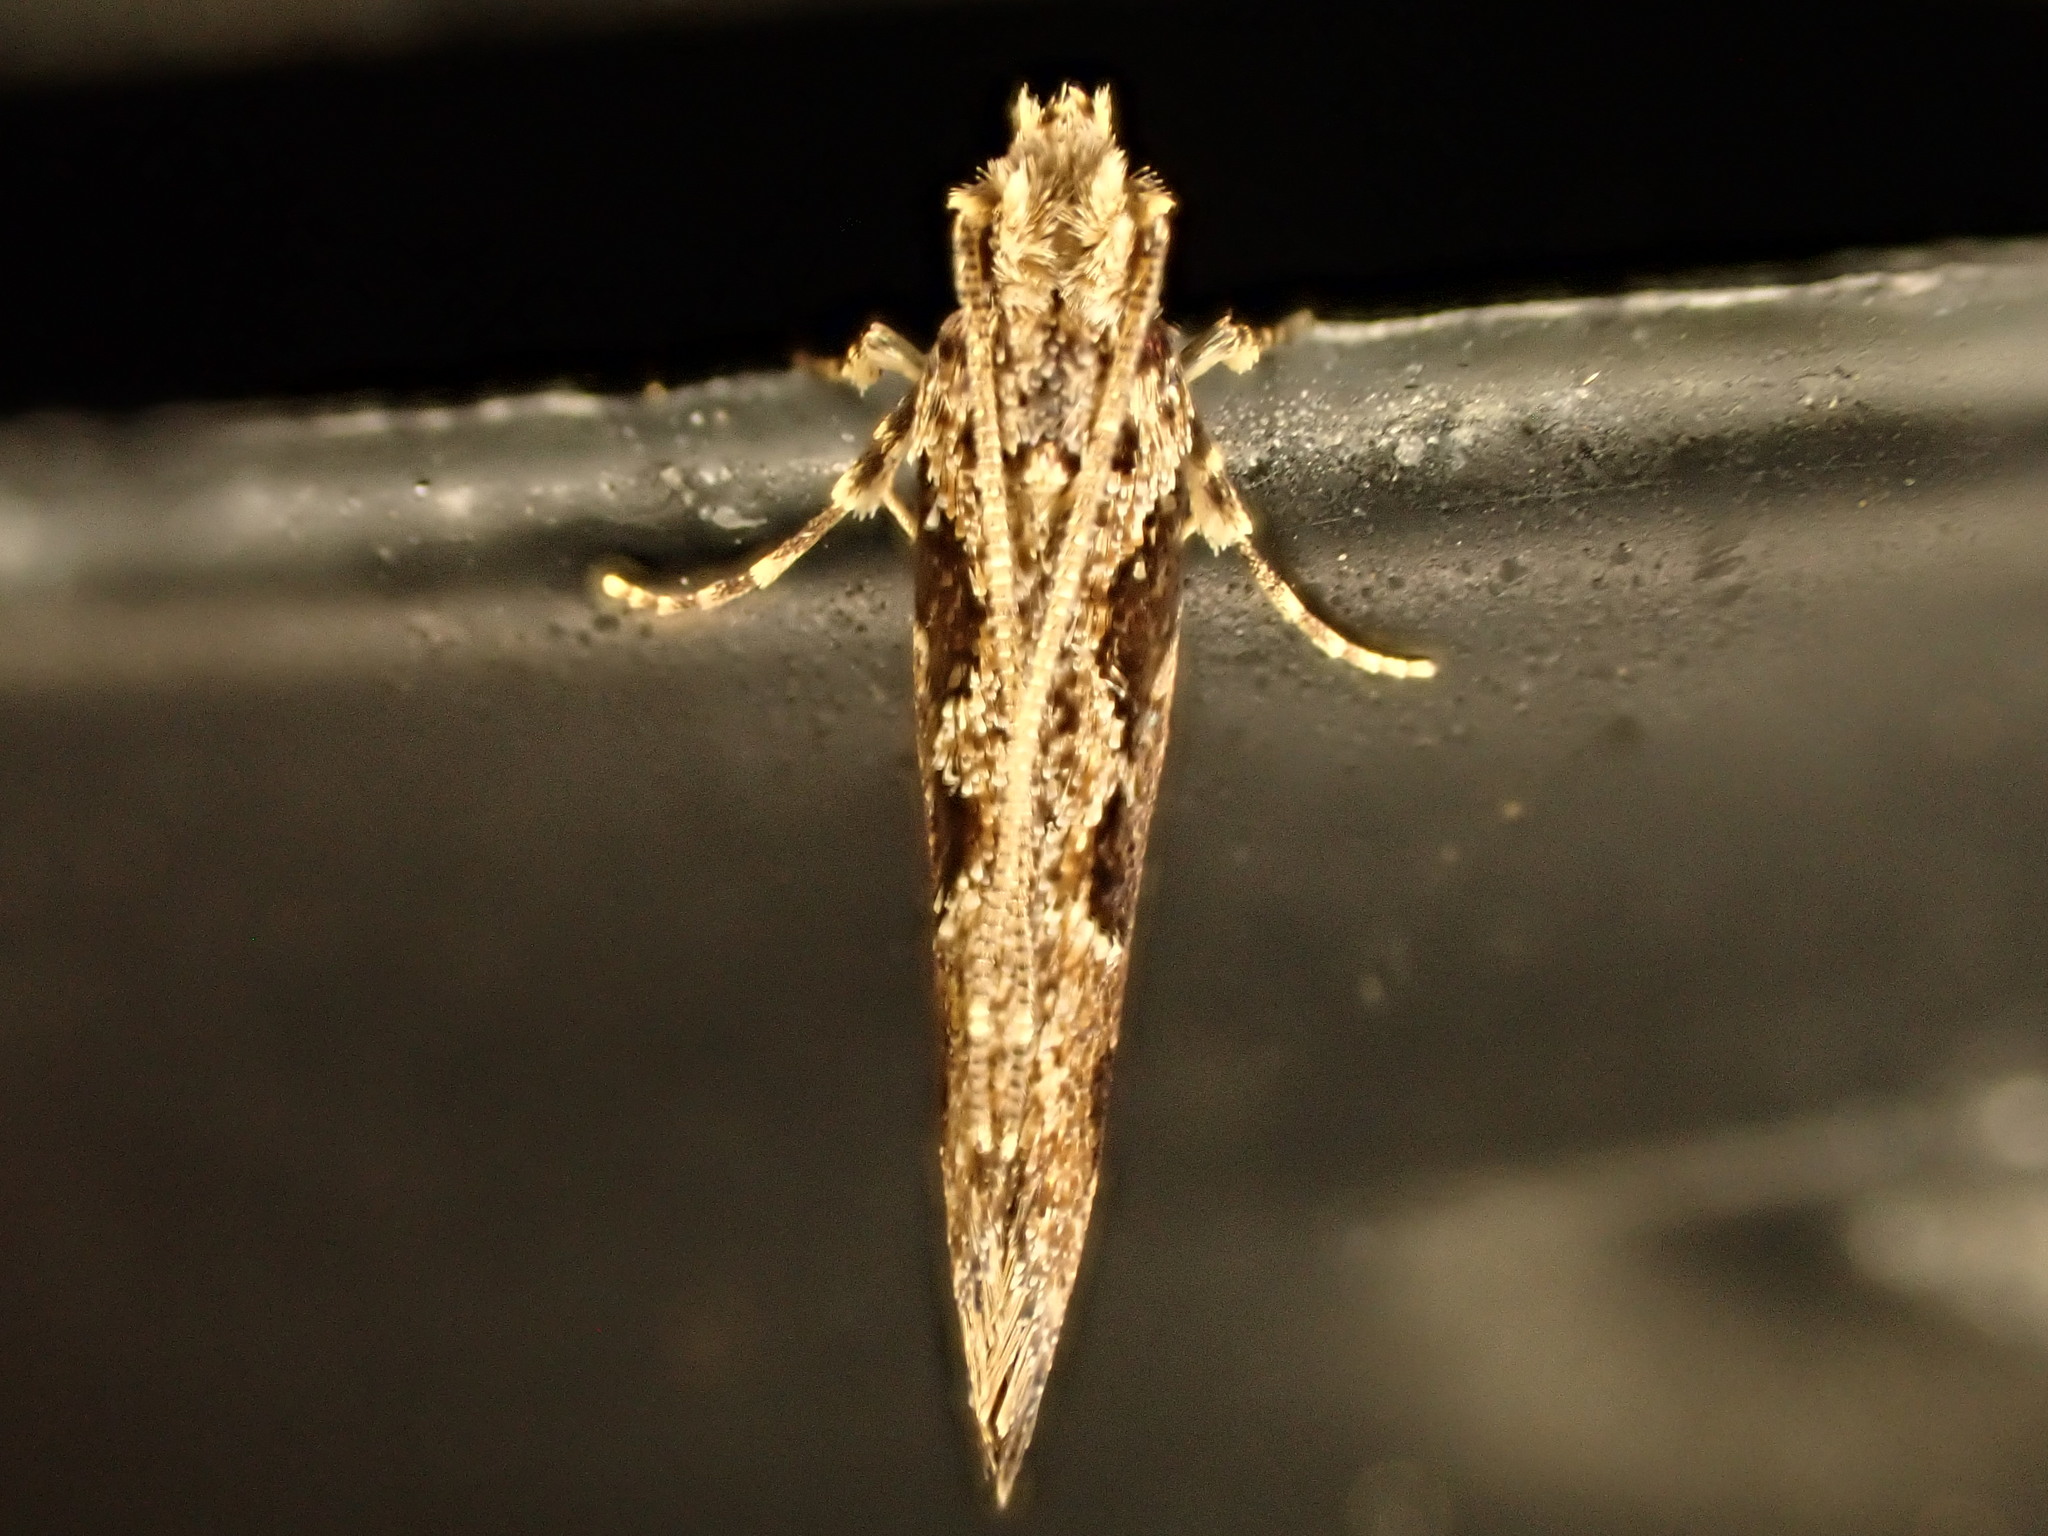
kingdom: Animalia
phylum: Arthropoda
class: Insecta
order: Lepidoptera
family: Tineidae
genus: Erechthias
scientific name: Erechthias capnitis
